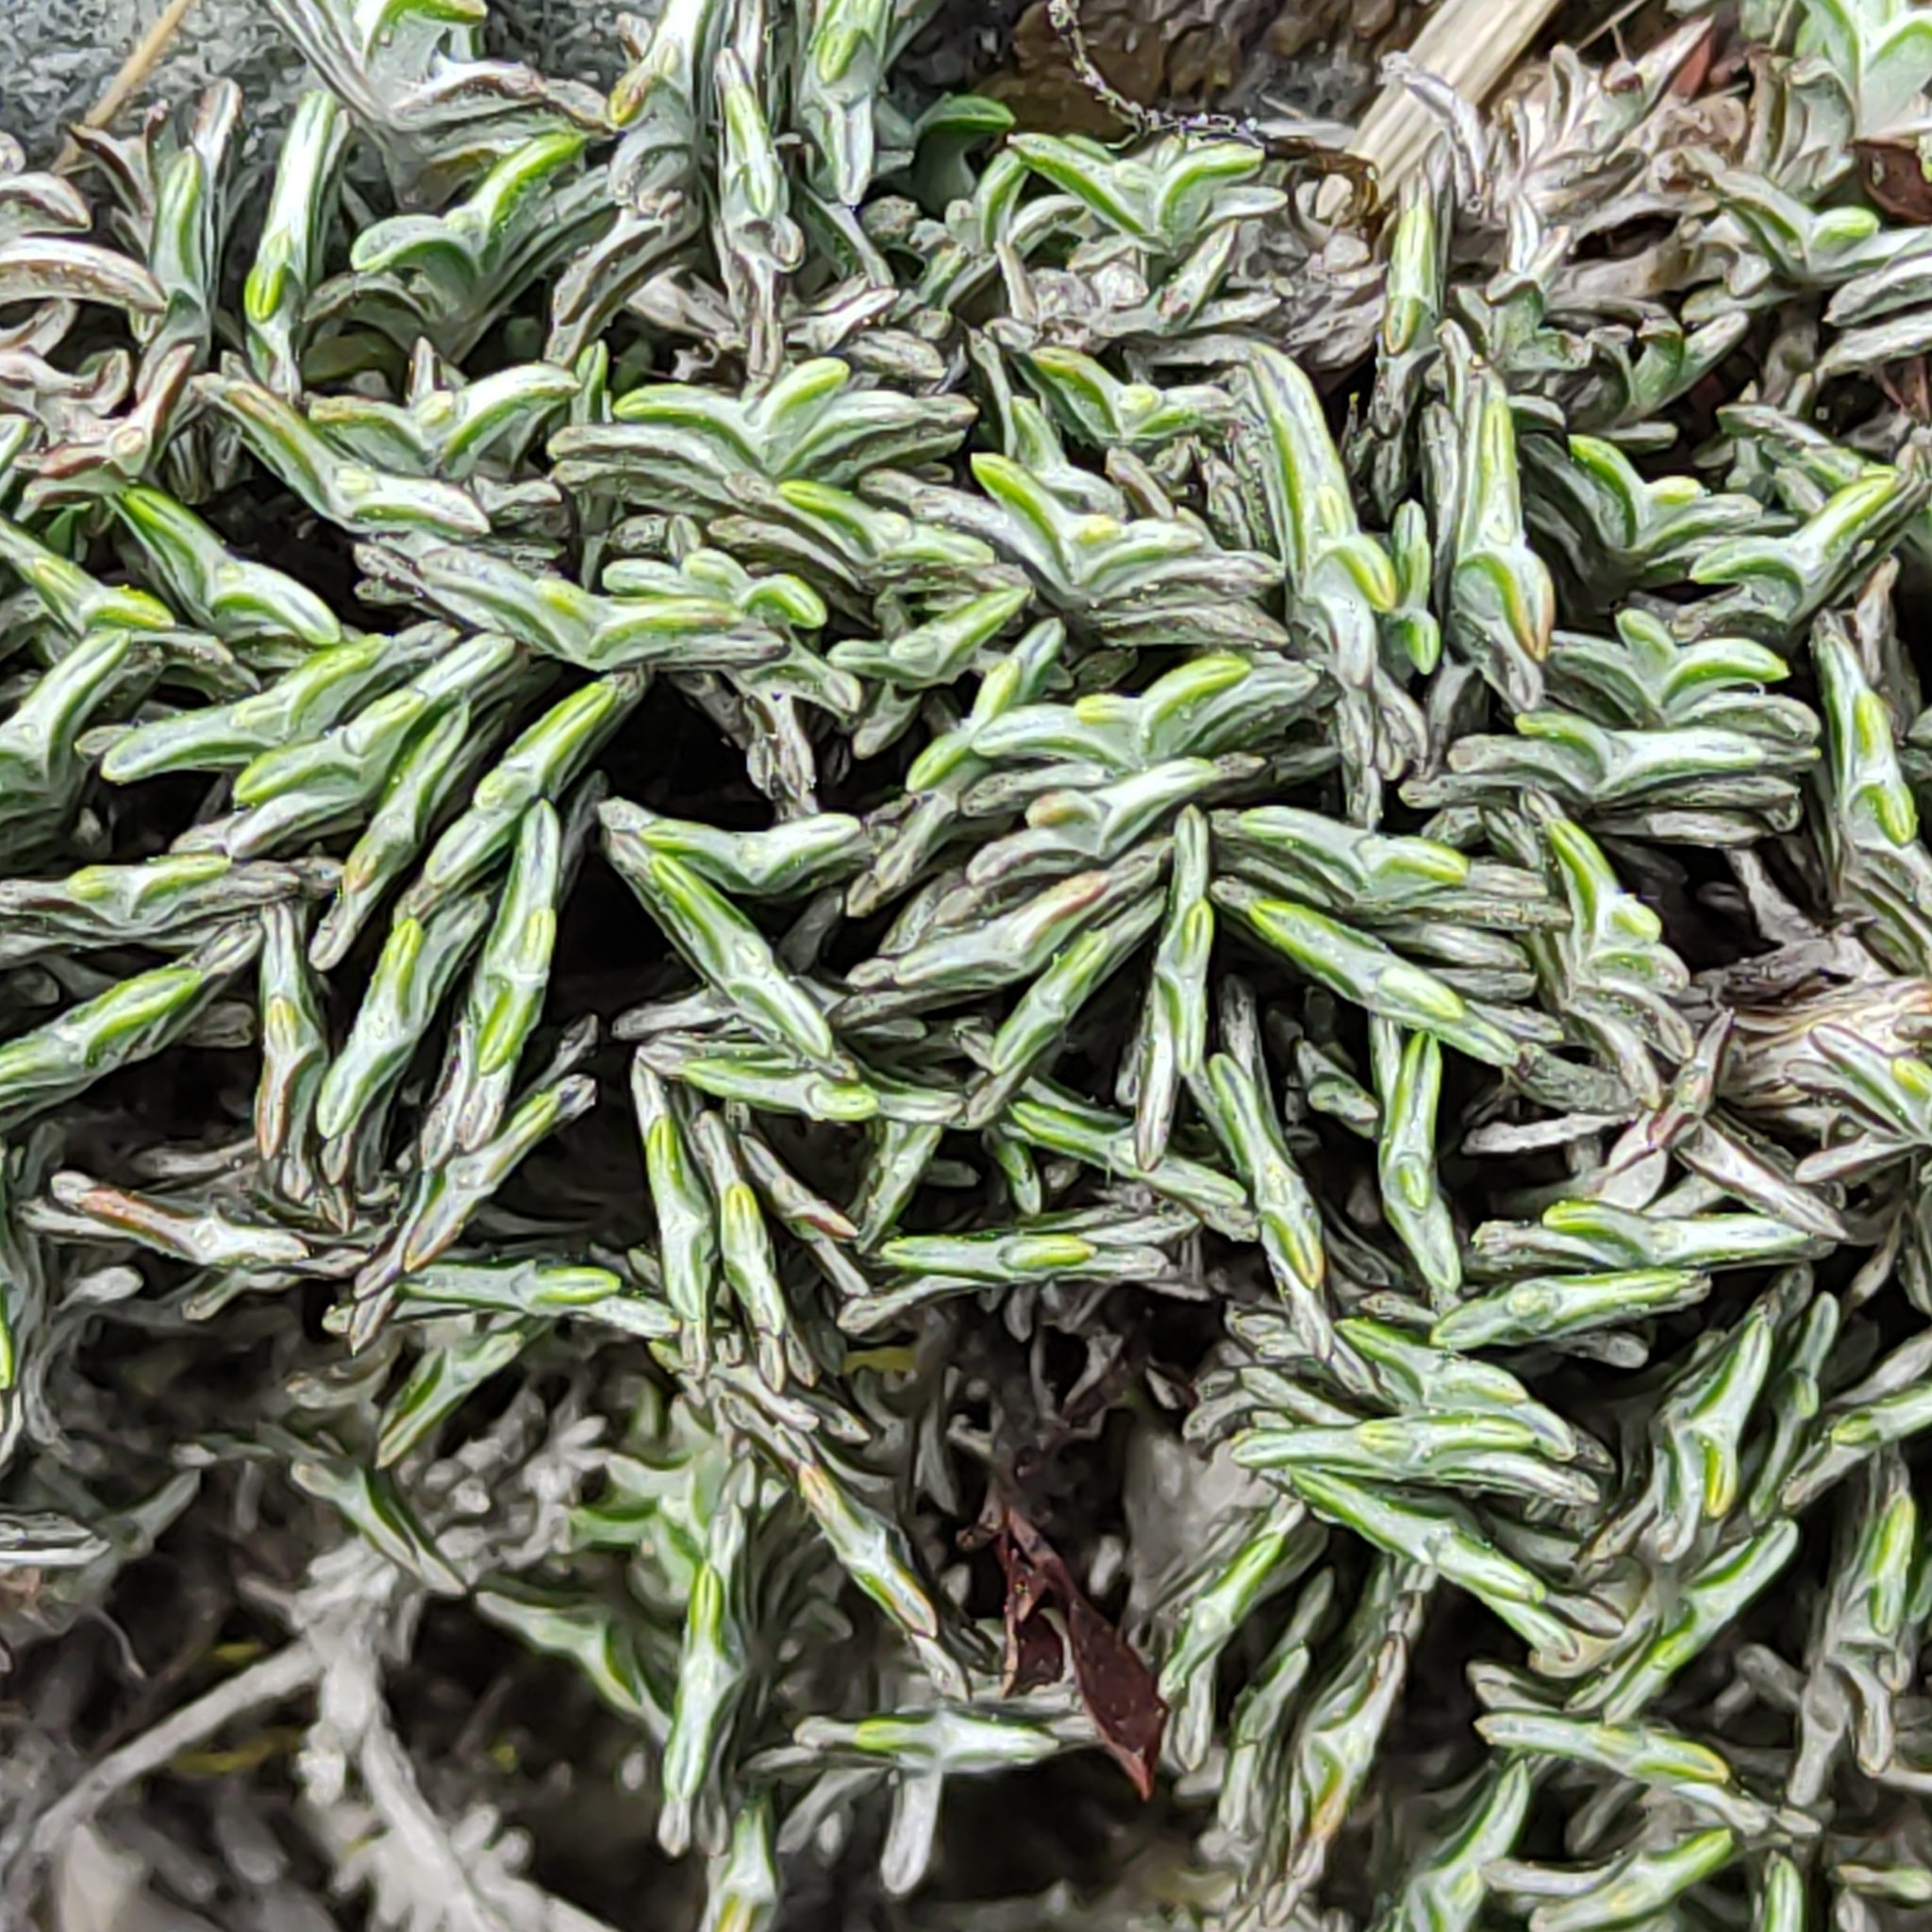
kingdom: Plantae
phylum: Tracheophyta
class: Magnoliopsida
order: Asterales
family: Asteraceae
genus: Raoulia
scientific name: Raoulia monroi
